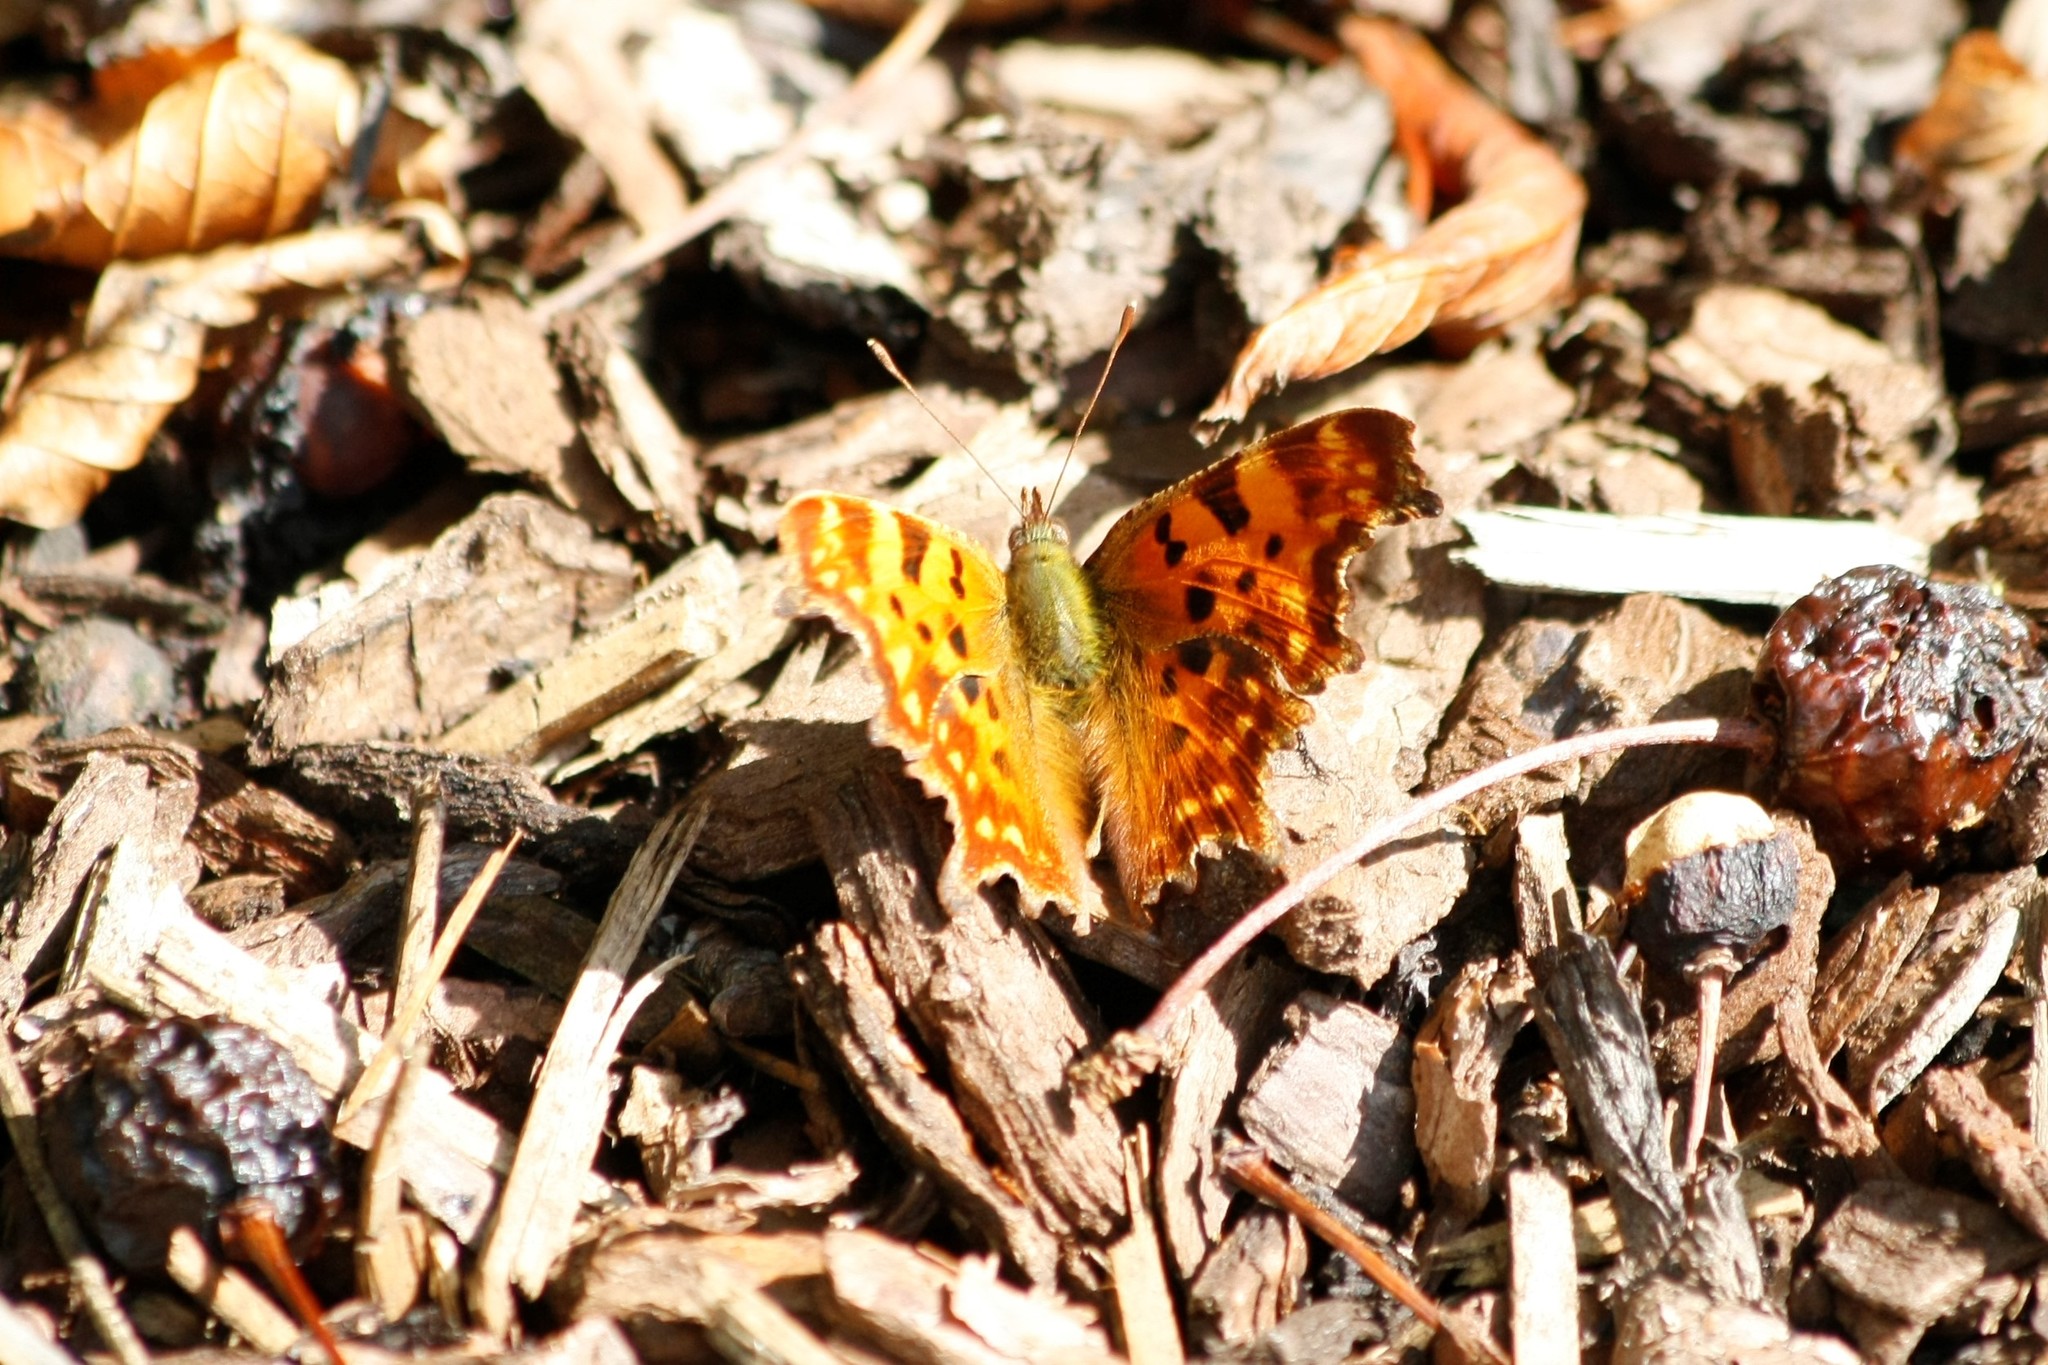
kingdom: Animalia
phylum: Arthropoda
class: Insecta
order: Lepidoptera
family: Nymphalidae
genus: Polygonia
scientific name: Polygonia c-album
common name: Comma
